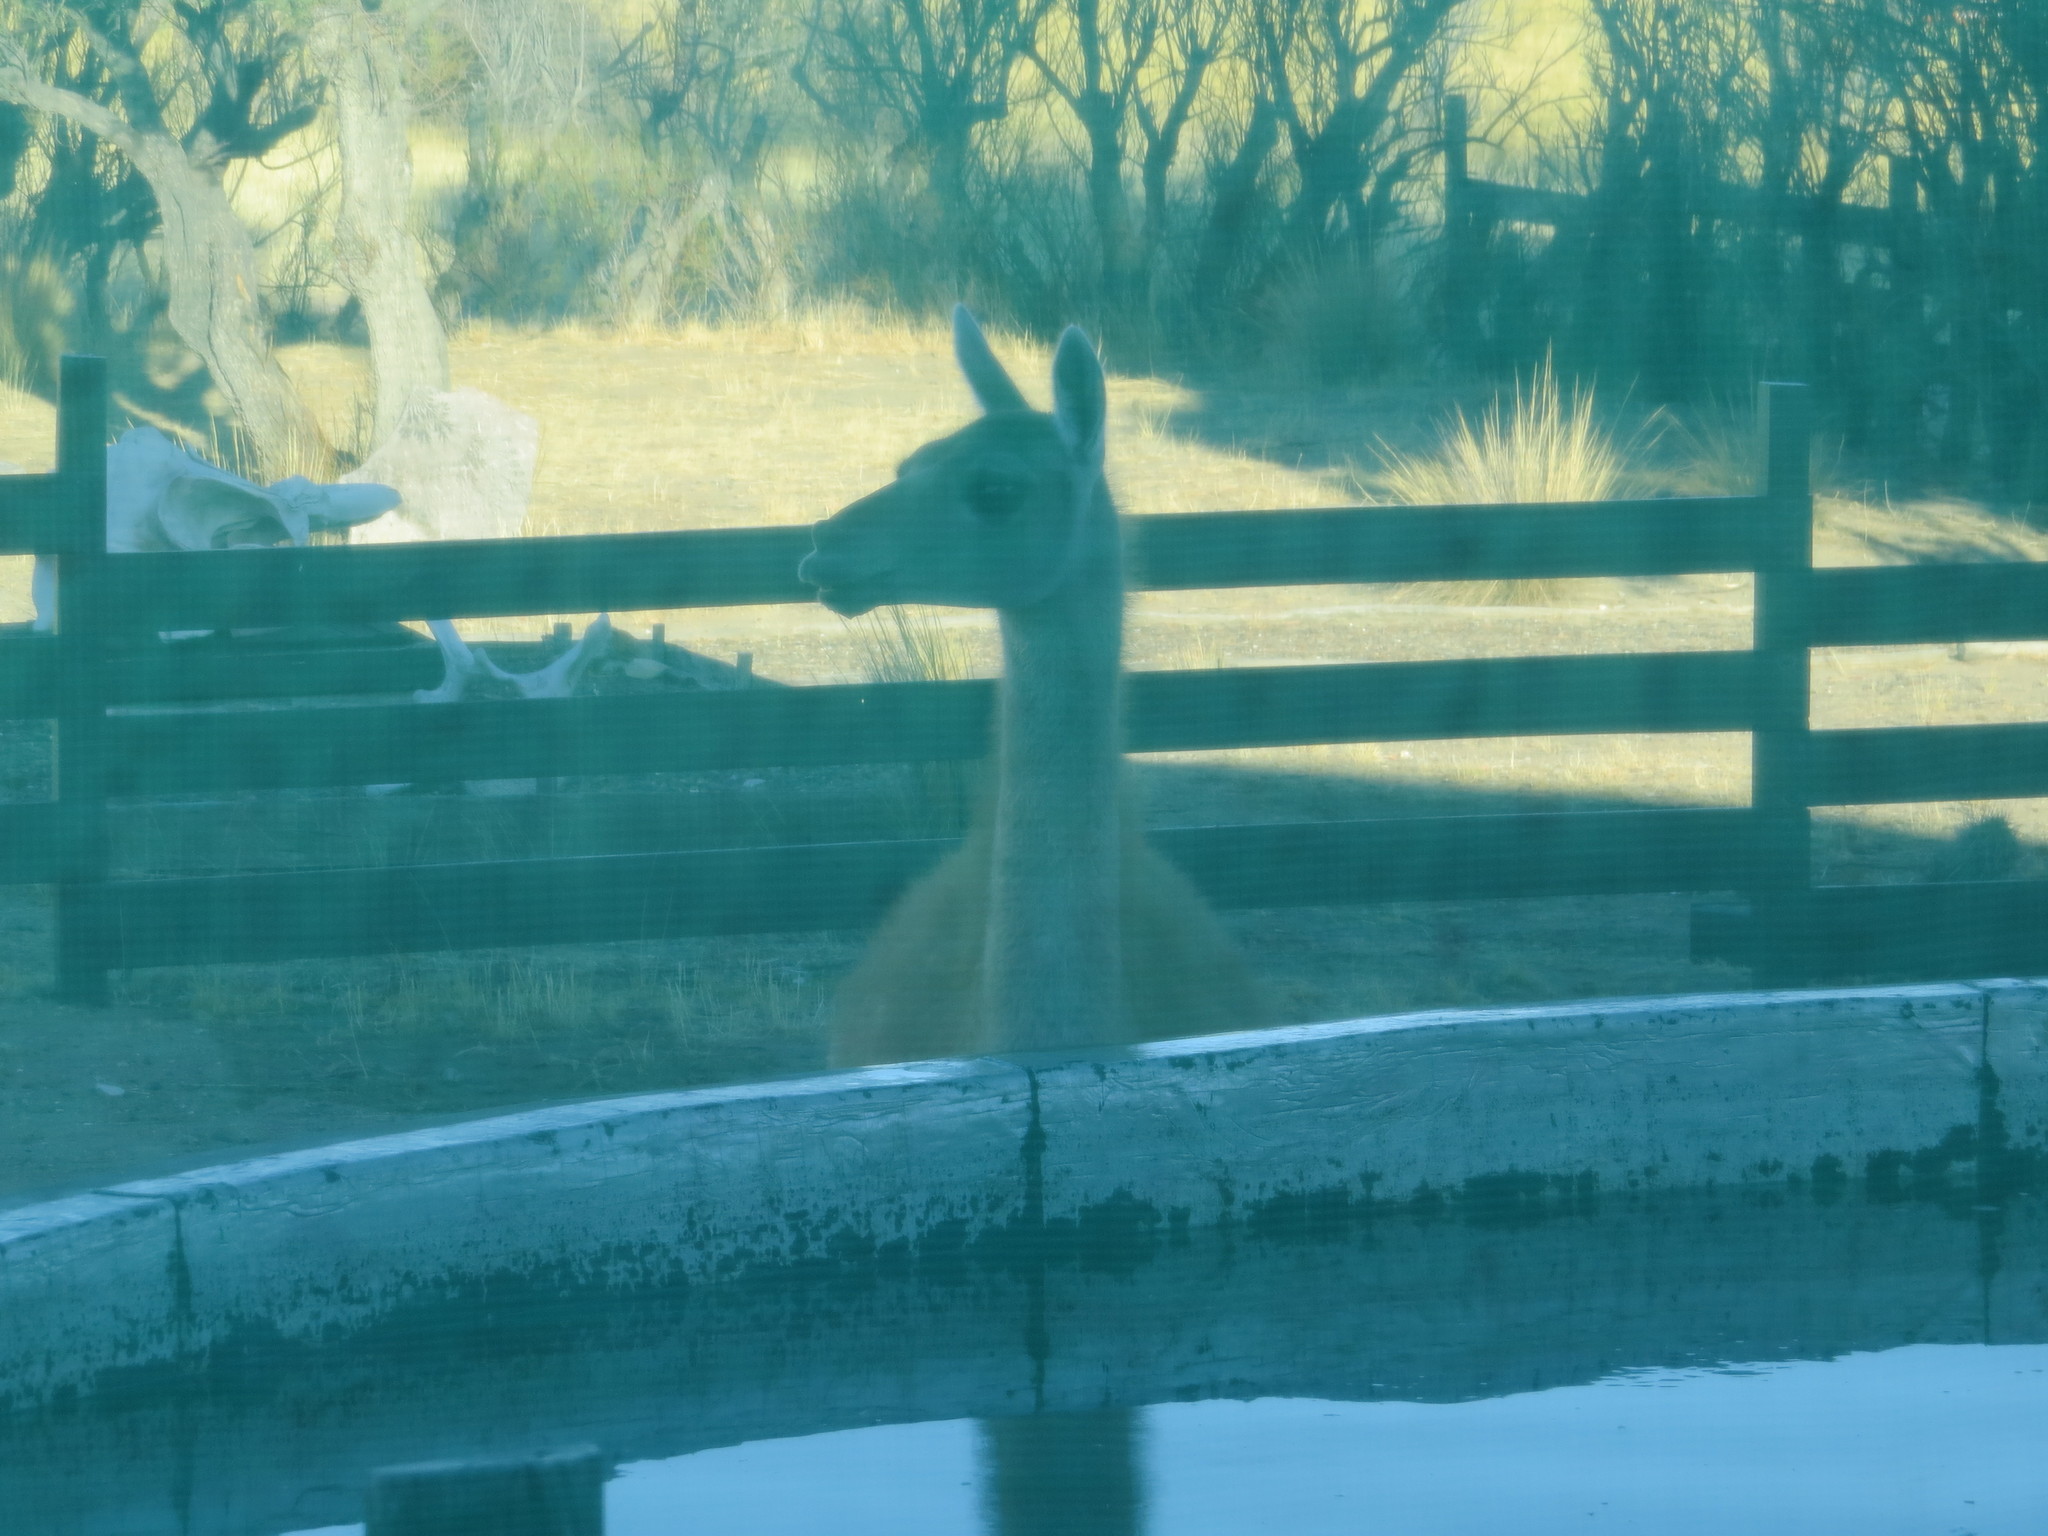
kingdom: Animalia
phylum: Chordata
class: Mammalia
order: Artiodactyla
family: Camelidae
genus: Lama
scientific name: Lama glama
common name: Llama
